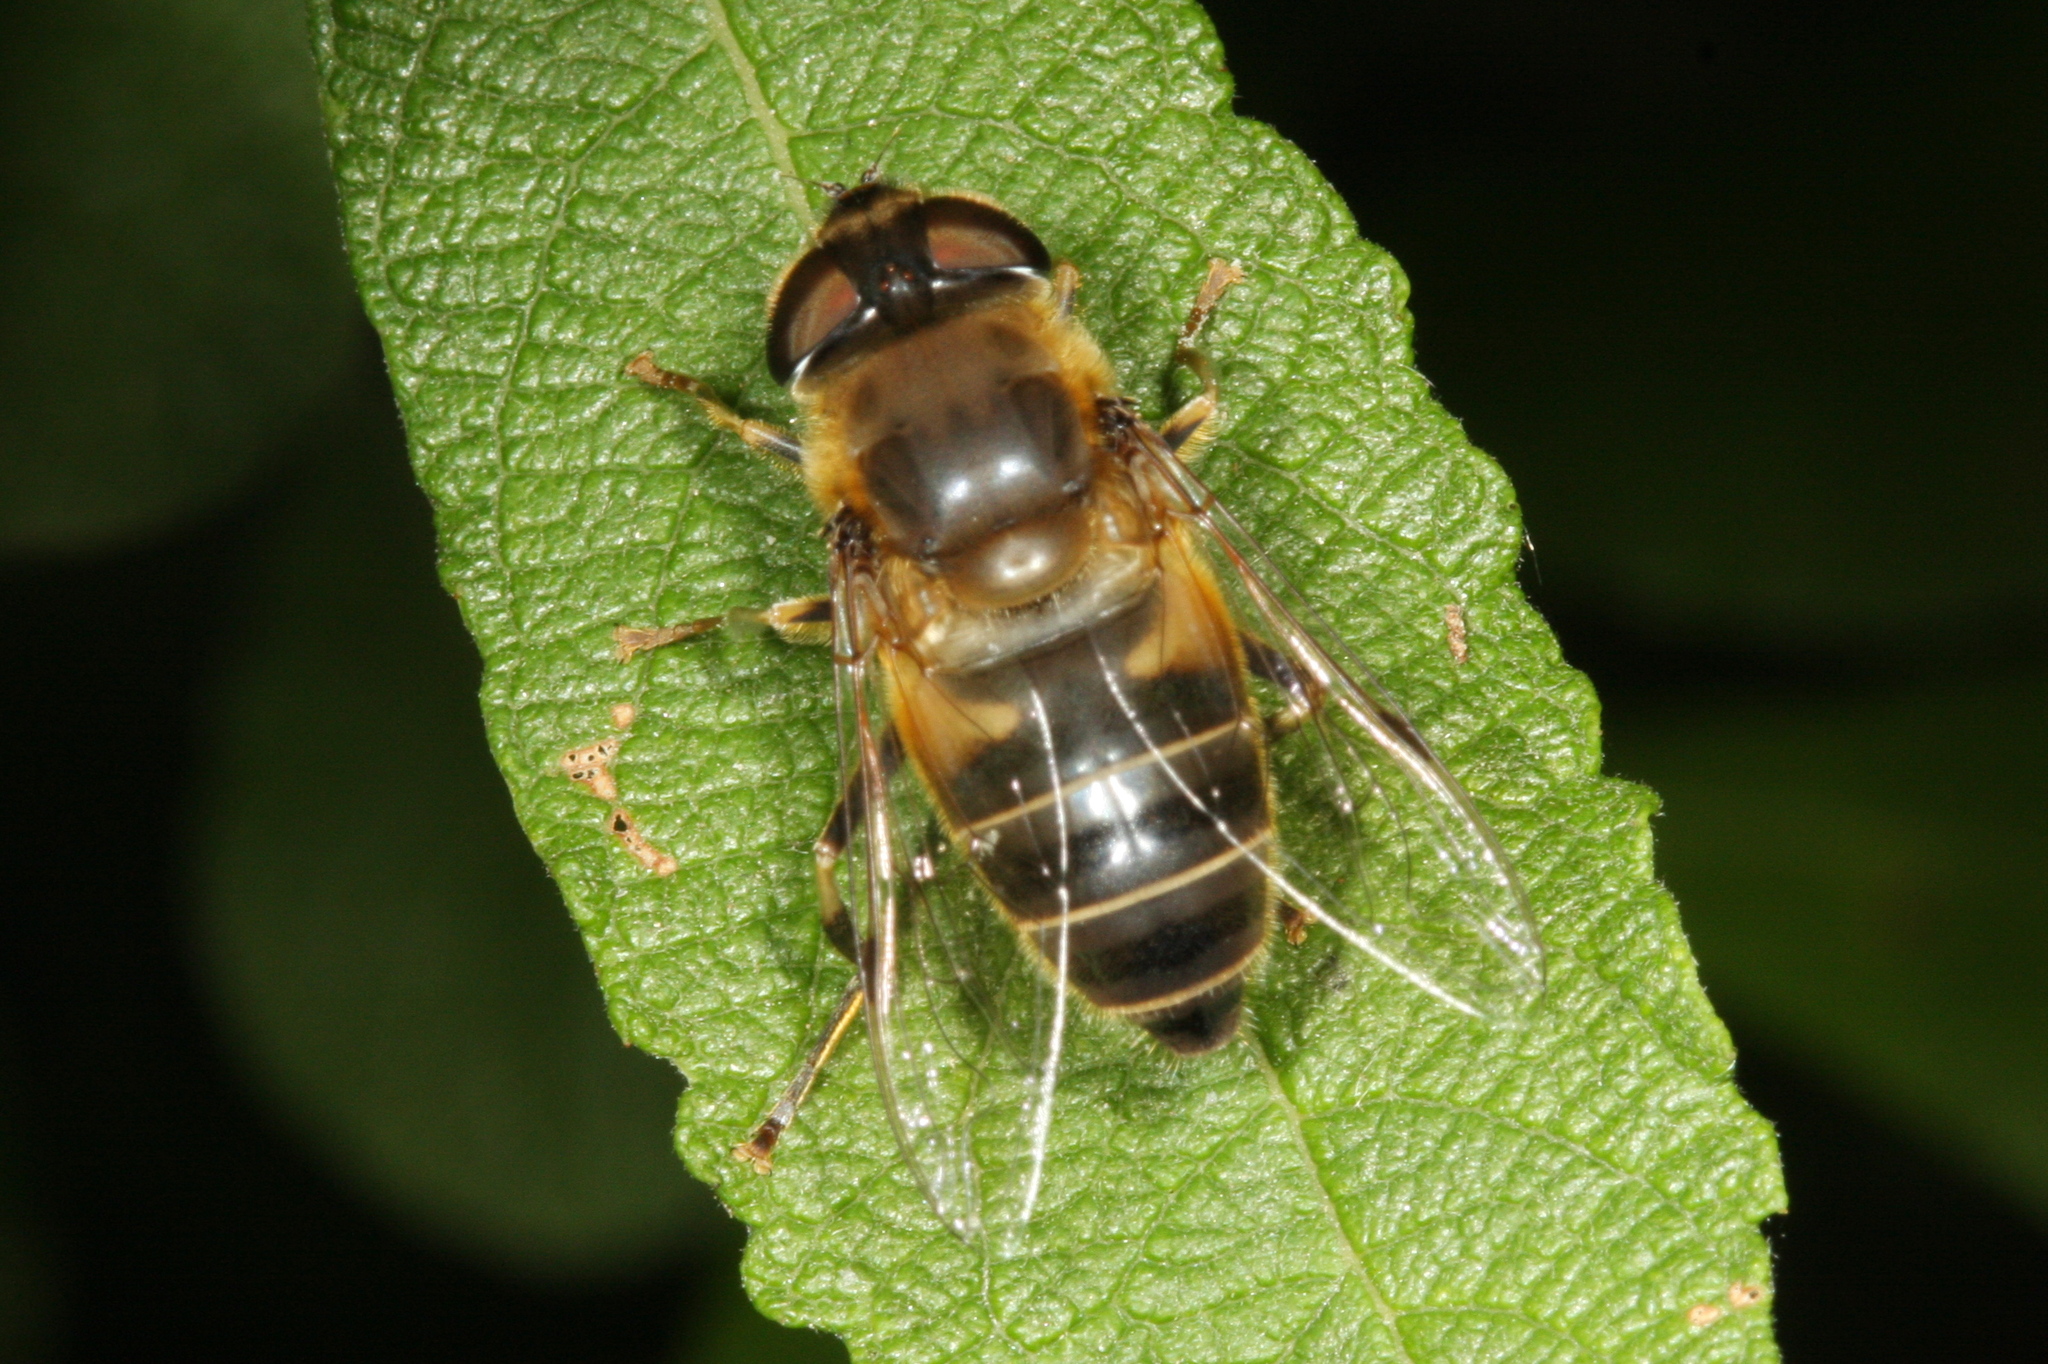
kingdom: Animalia
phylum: Arthropoda
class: Insecta
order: Diptera
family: Syrphidae
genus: Eristalis
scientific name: Eristalis pertinax
